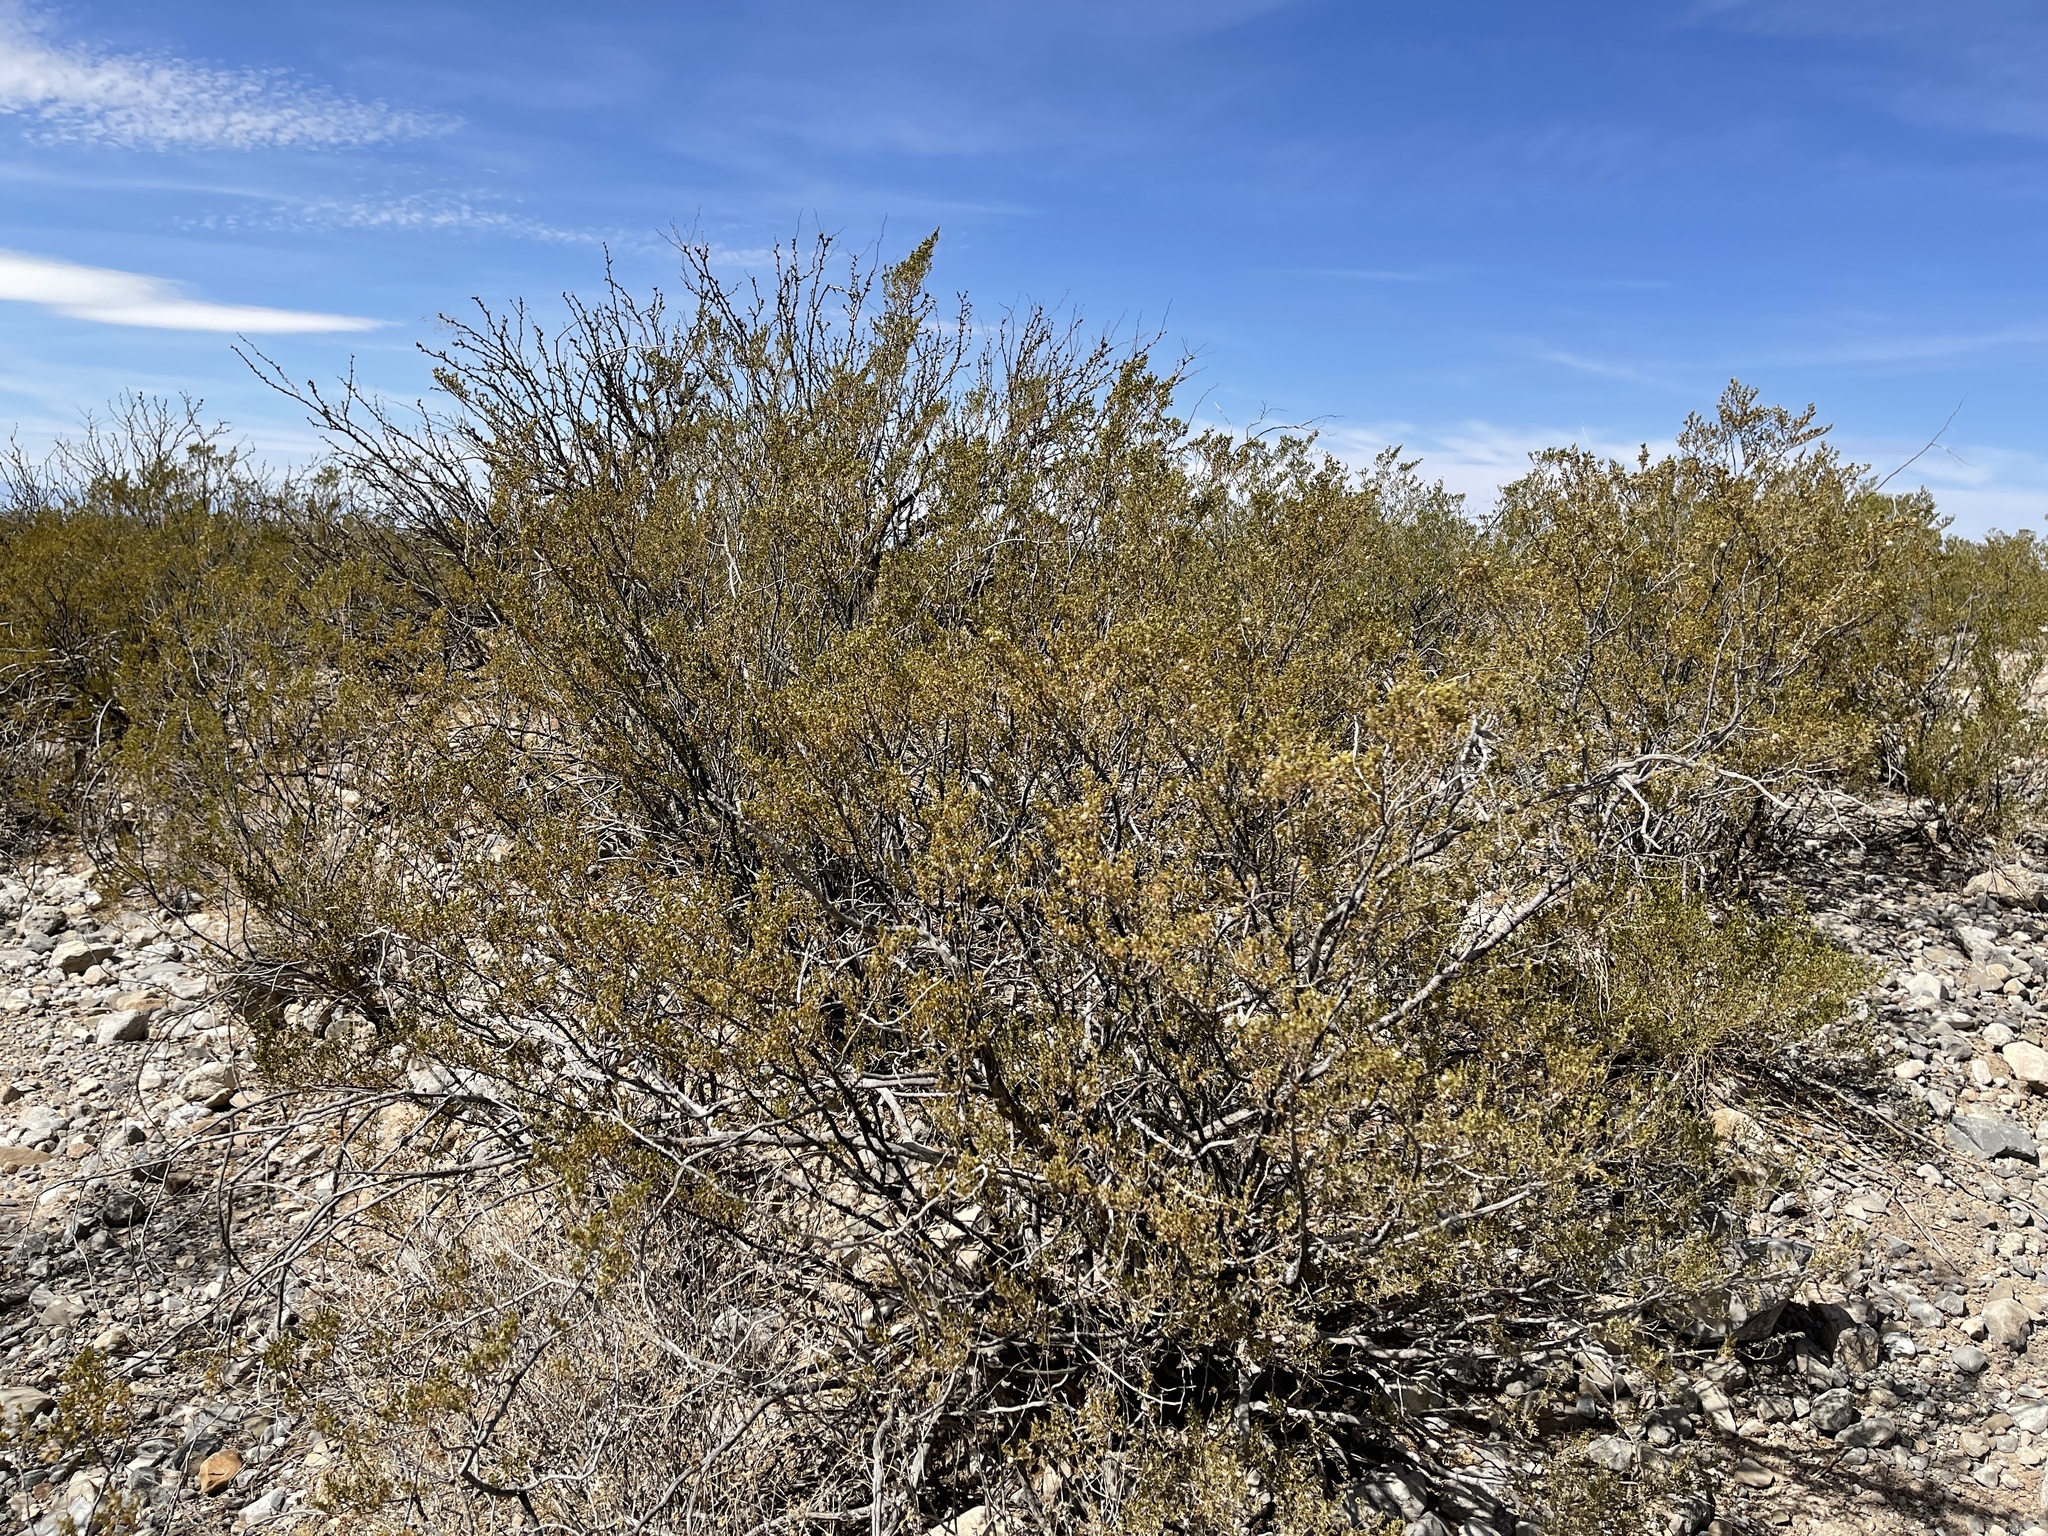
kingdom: Plantae
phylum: Tracheophyta
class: Magnoliopsida
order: Zygophyllales
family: Zygophyllaceae
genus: Larrea
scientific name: Larrea tridentata
